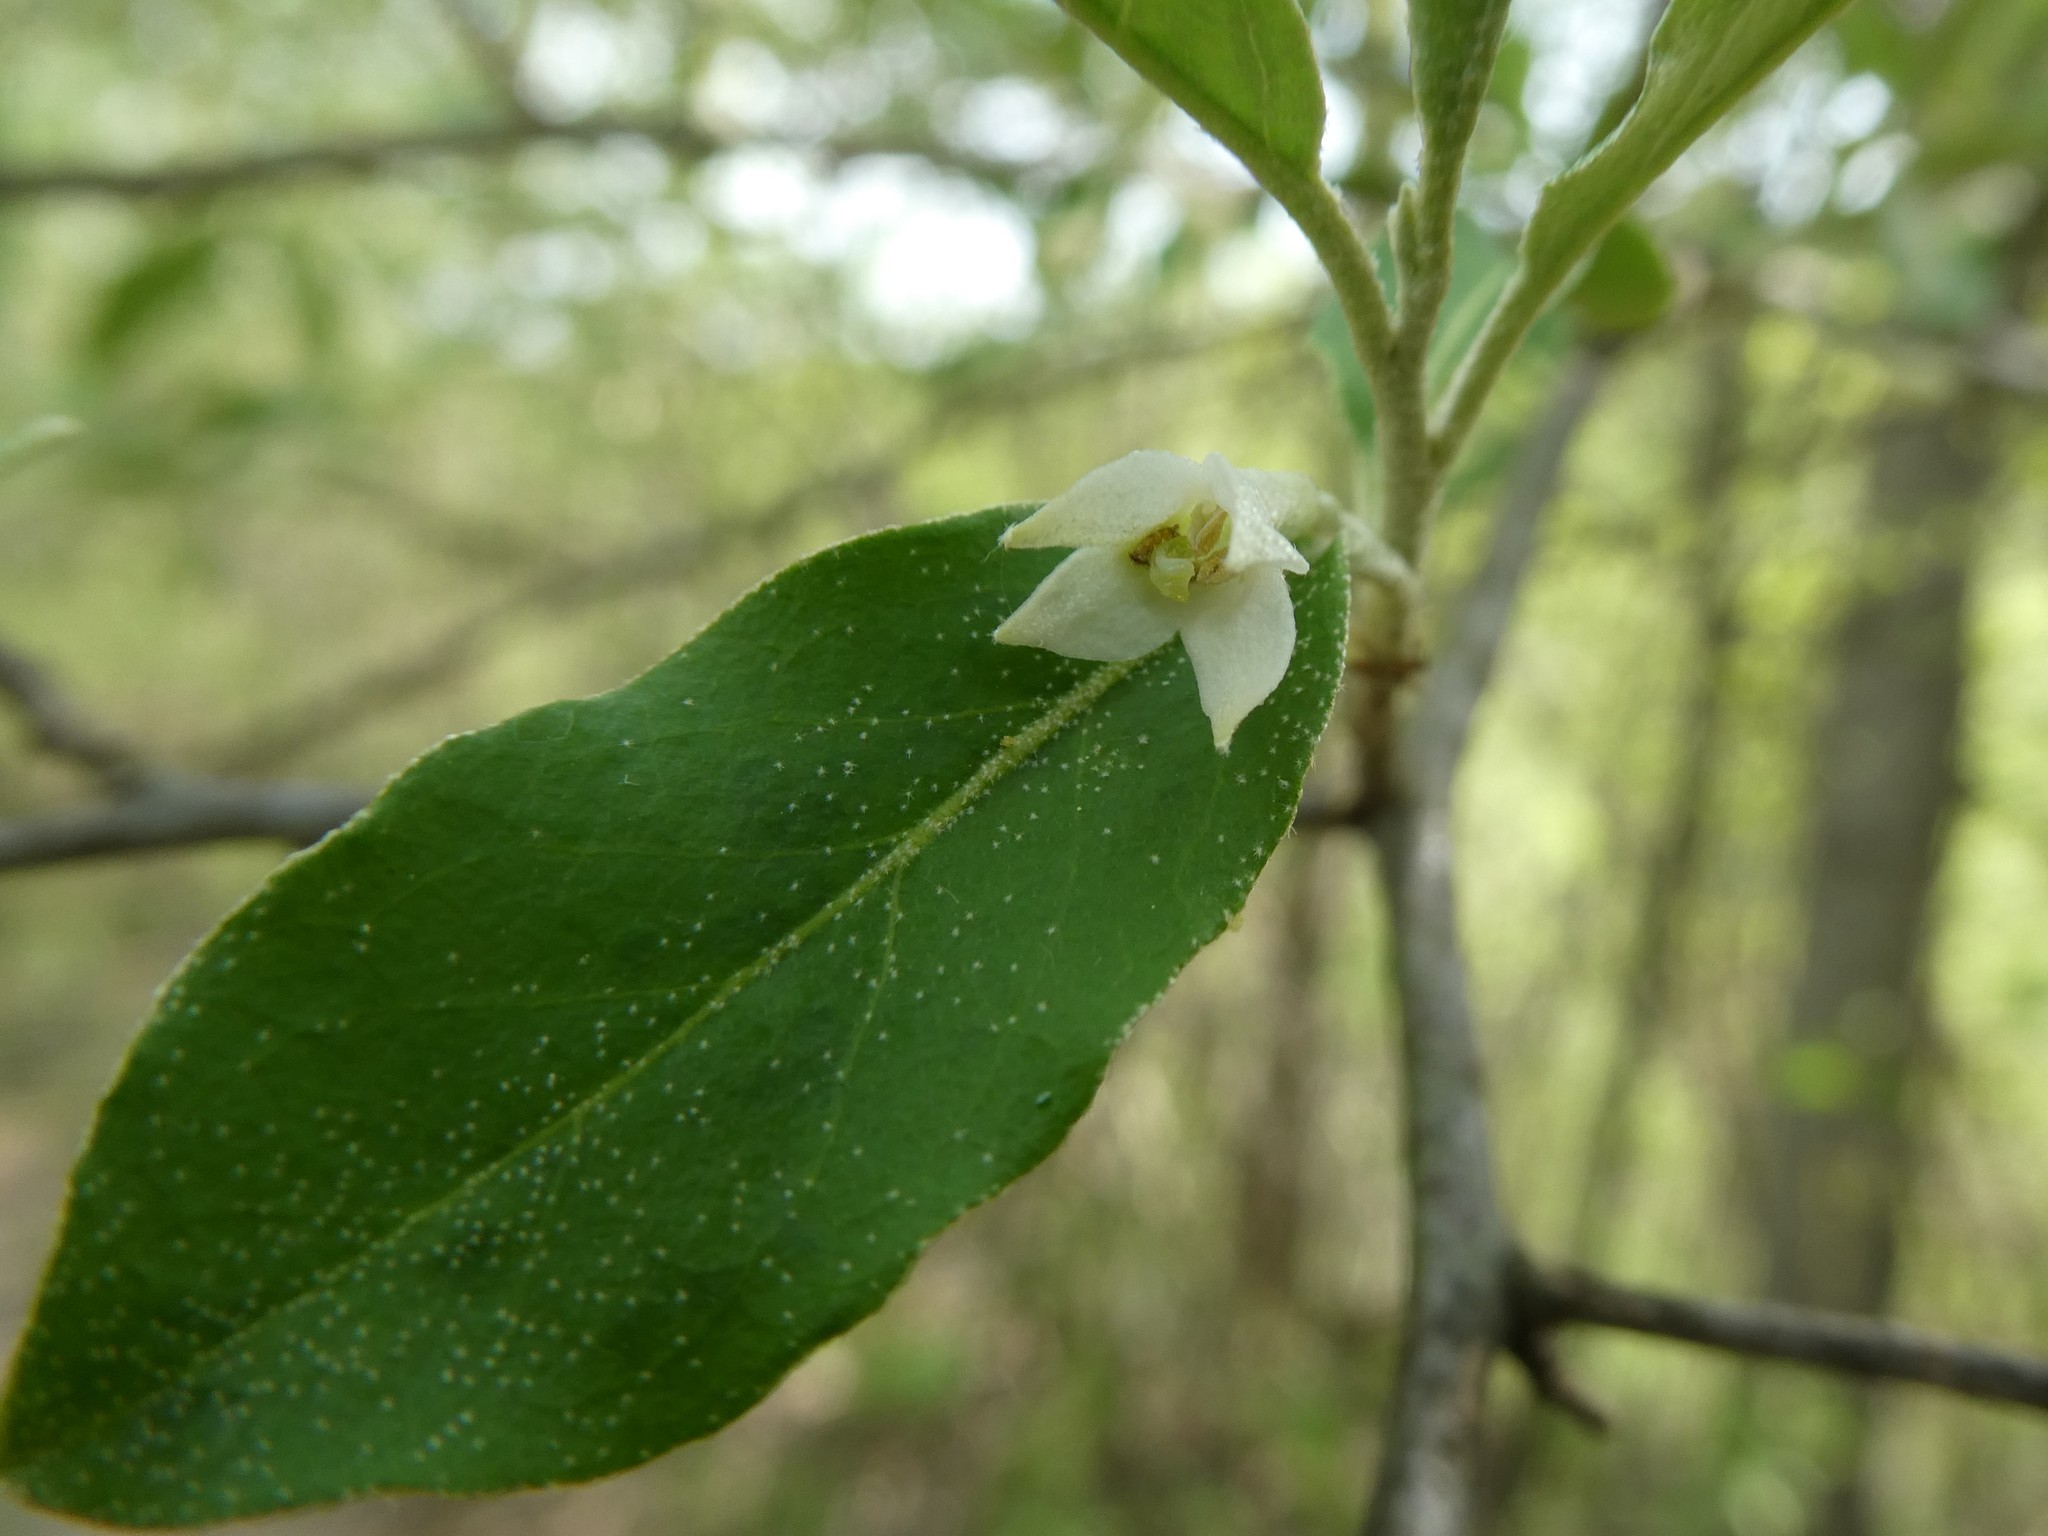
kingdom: Plantae
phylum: Tracheophyta
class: Magnoliopsida
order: Rosales
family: Elaeagnaceae
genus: Elaeagnus
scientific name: Elaeagnus umbellata
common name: Autumn olive
